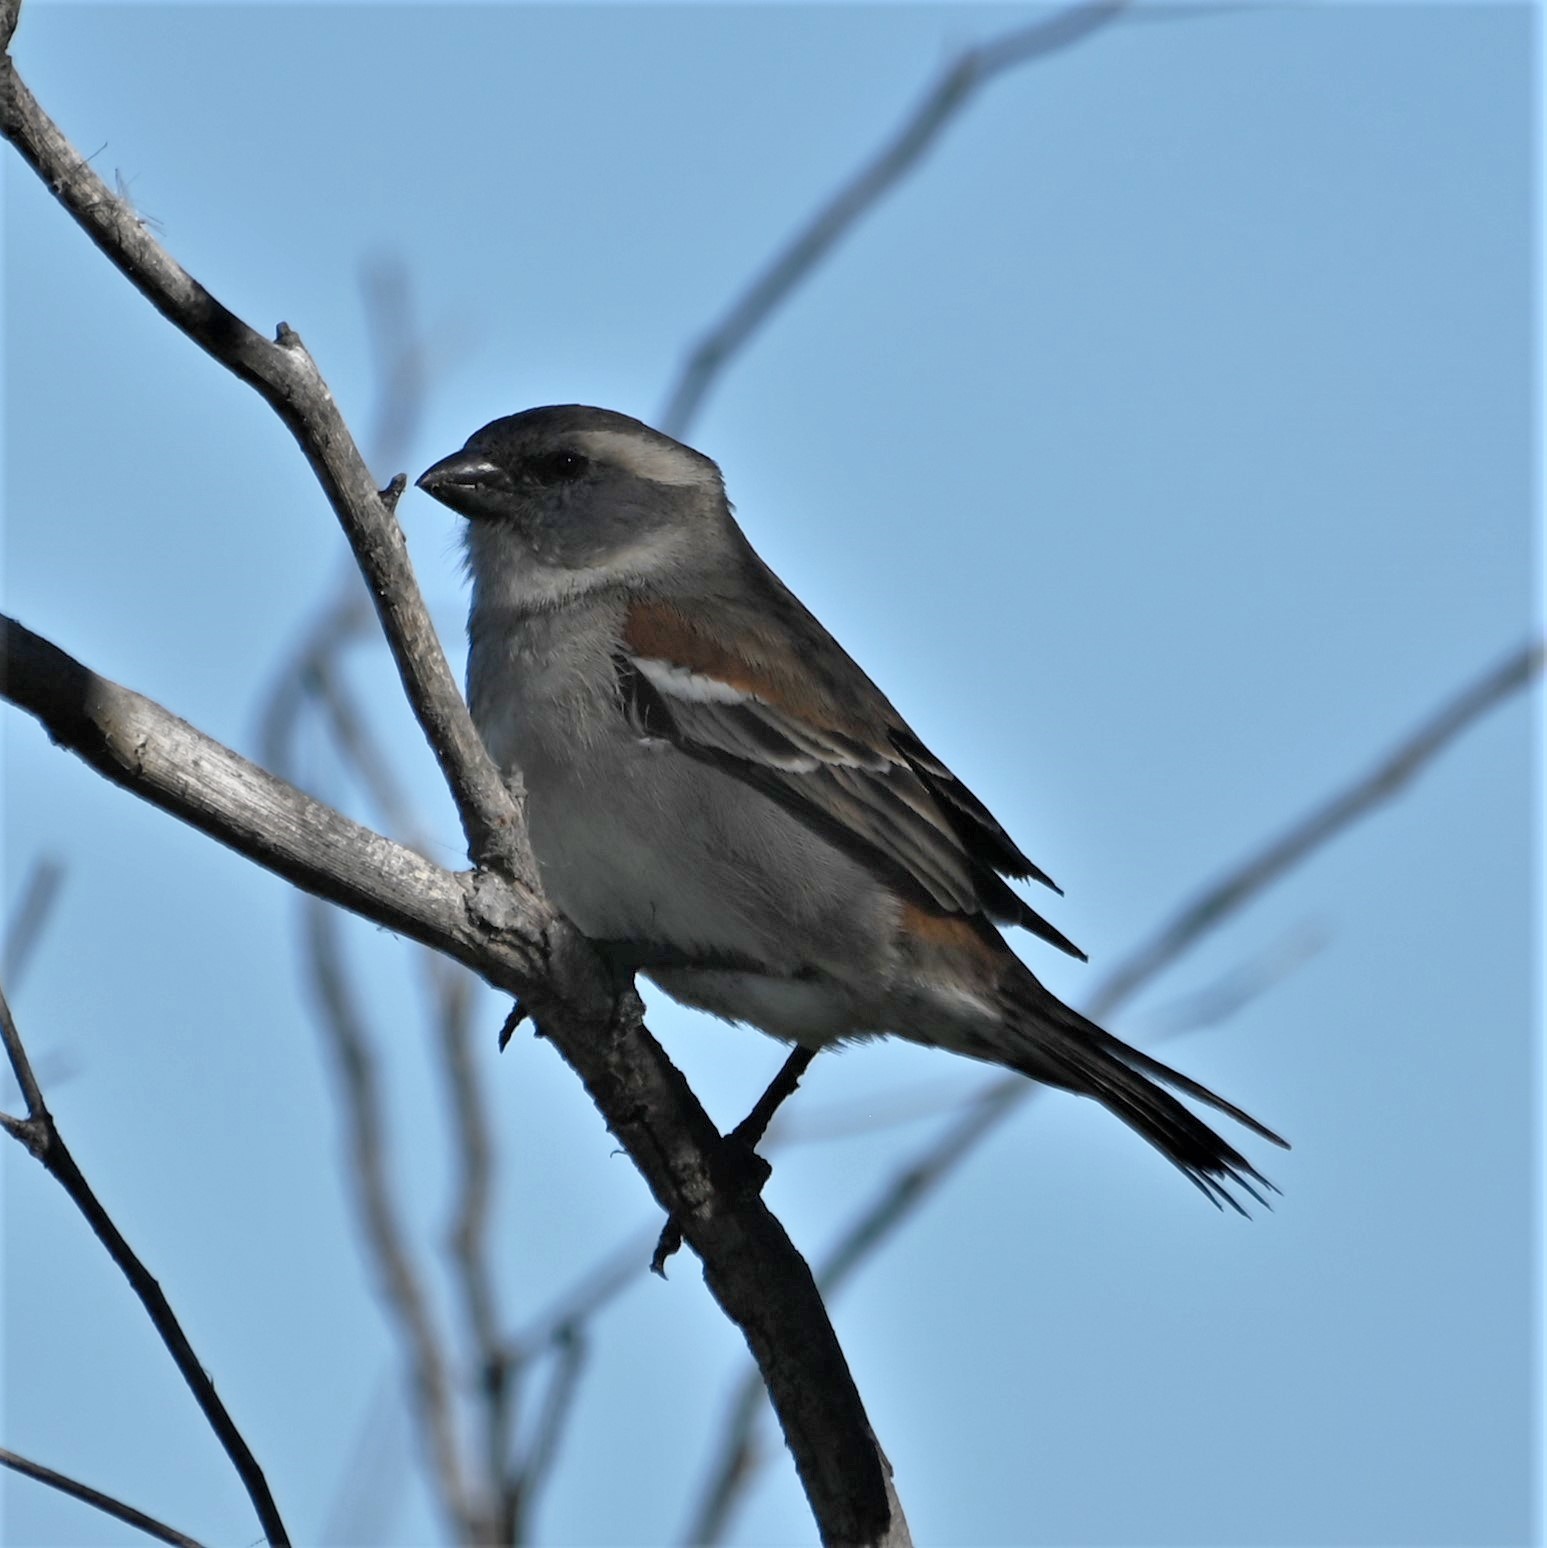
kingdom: Animalia
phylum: Chordata
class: Aves
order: Passeriformes
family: Passeridae
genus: Passer
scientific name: Passer melanurus
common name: Cape sparrow
